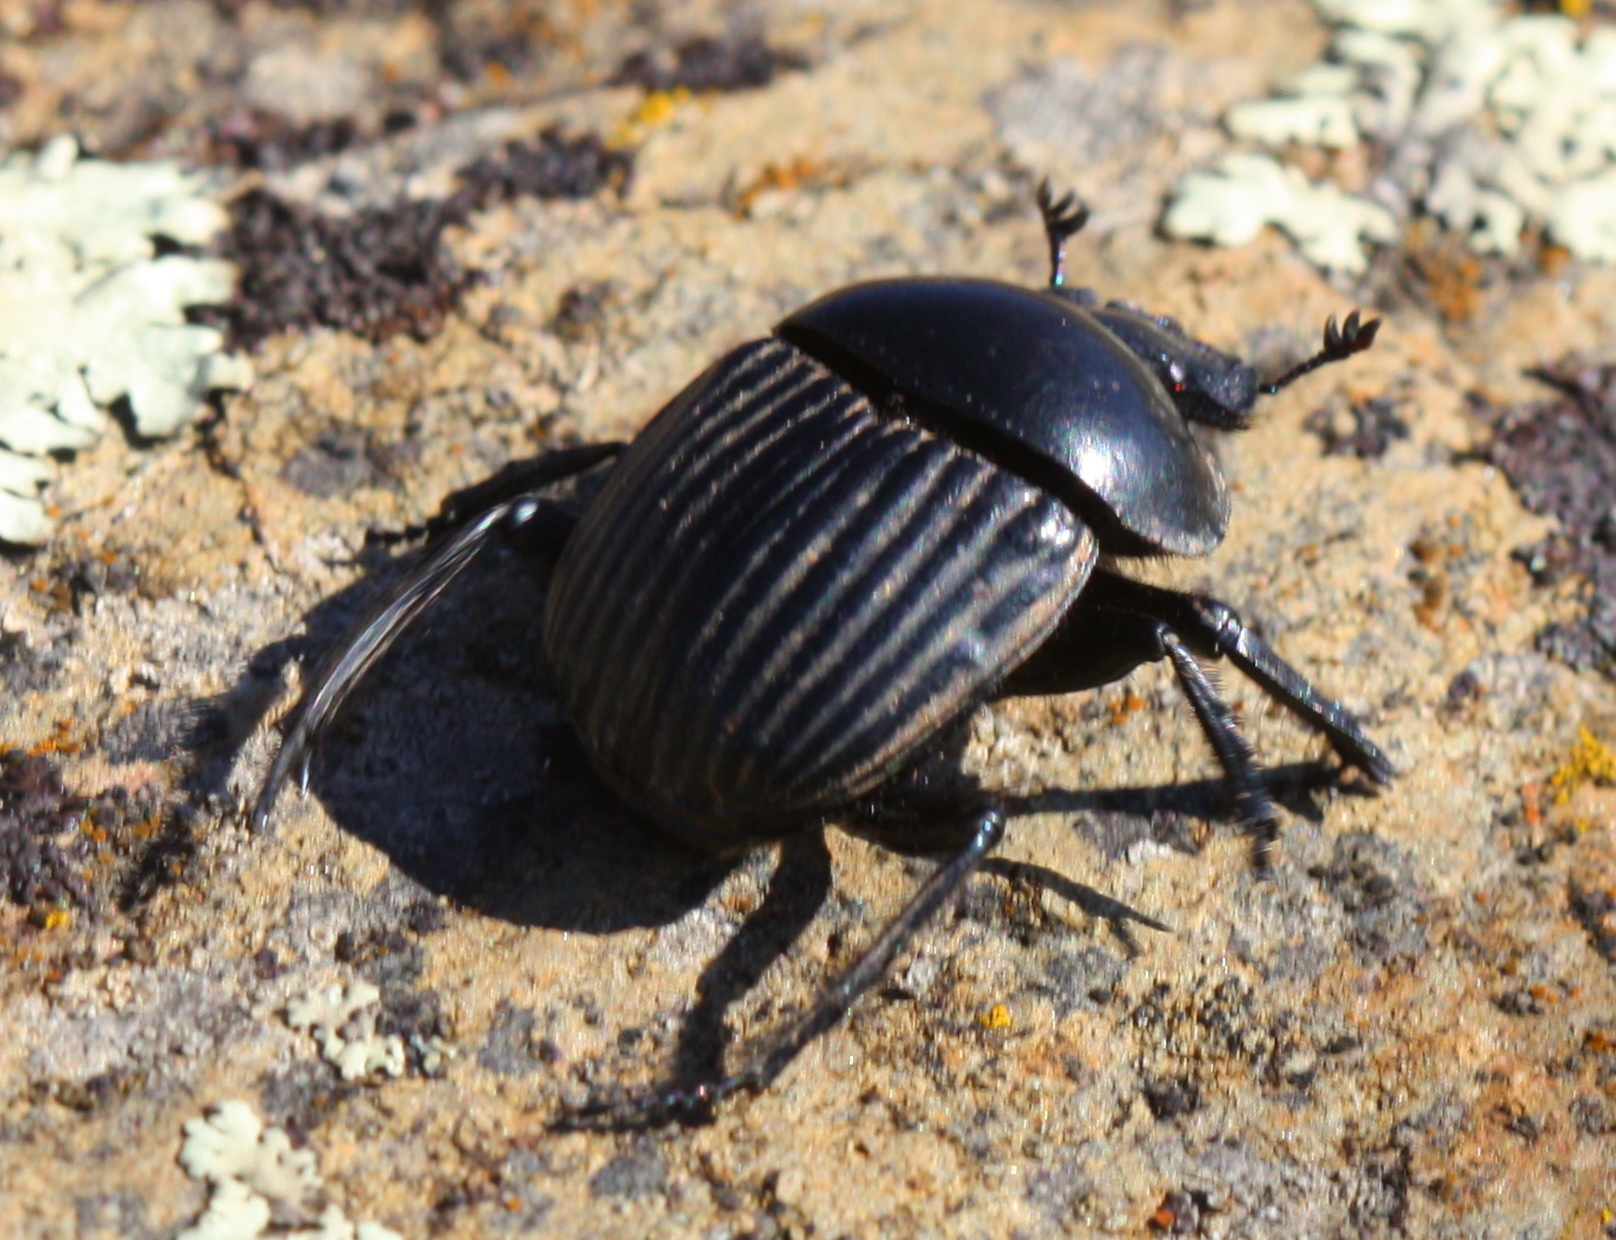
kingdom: Animalia
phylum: Arthropoda
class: Insecta
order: Coleoptera
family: Scarabaeidae
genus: Ateuchetus
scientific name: Ateuchetus laticollis
